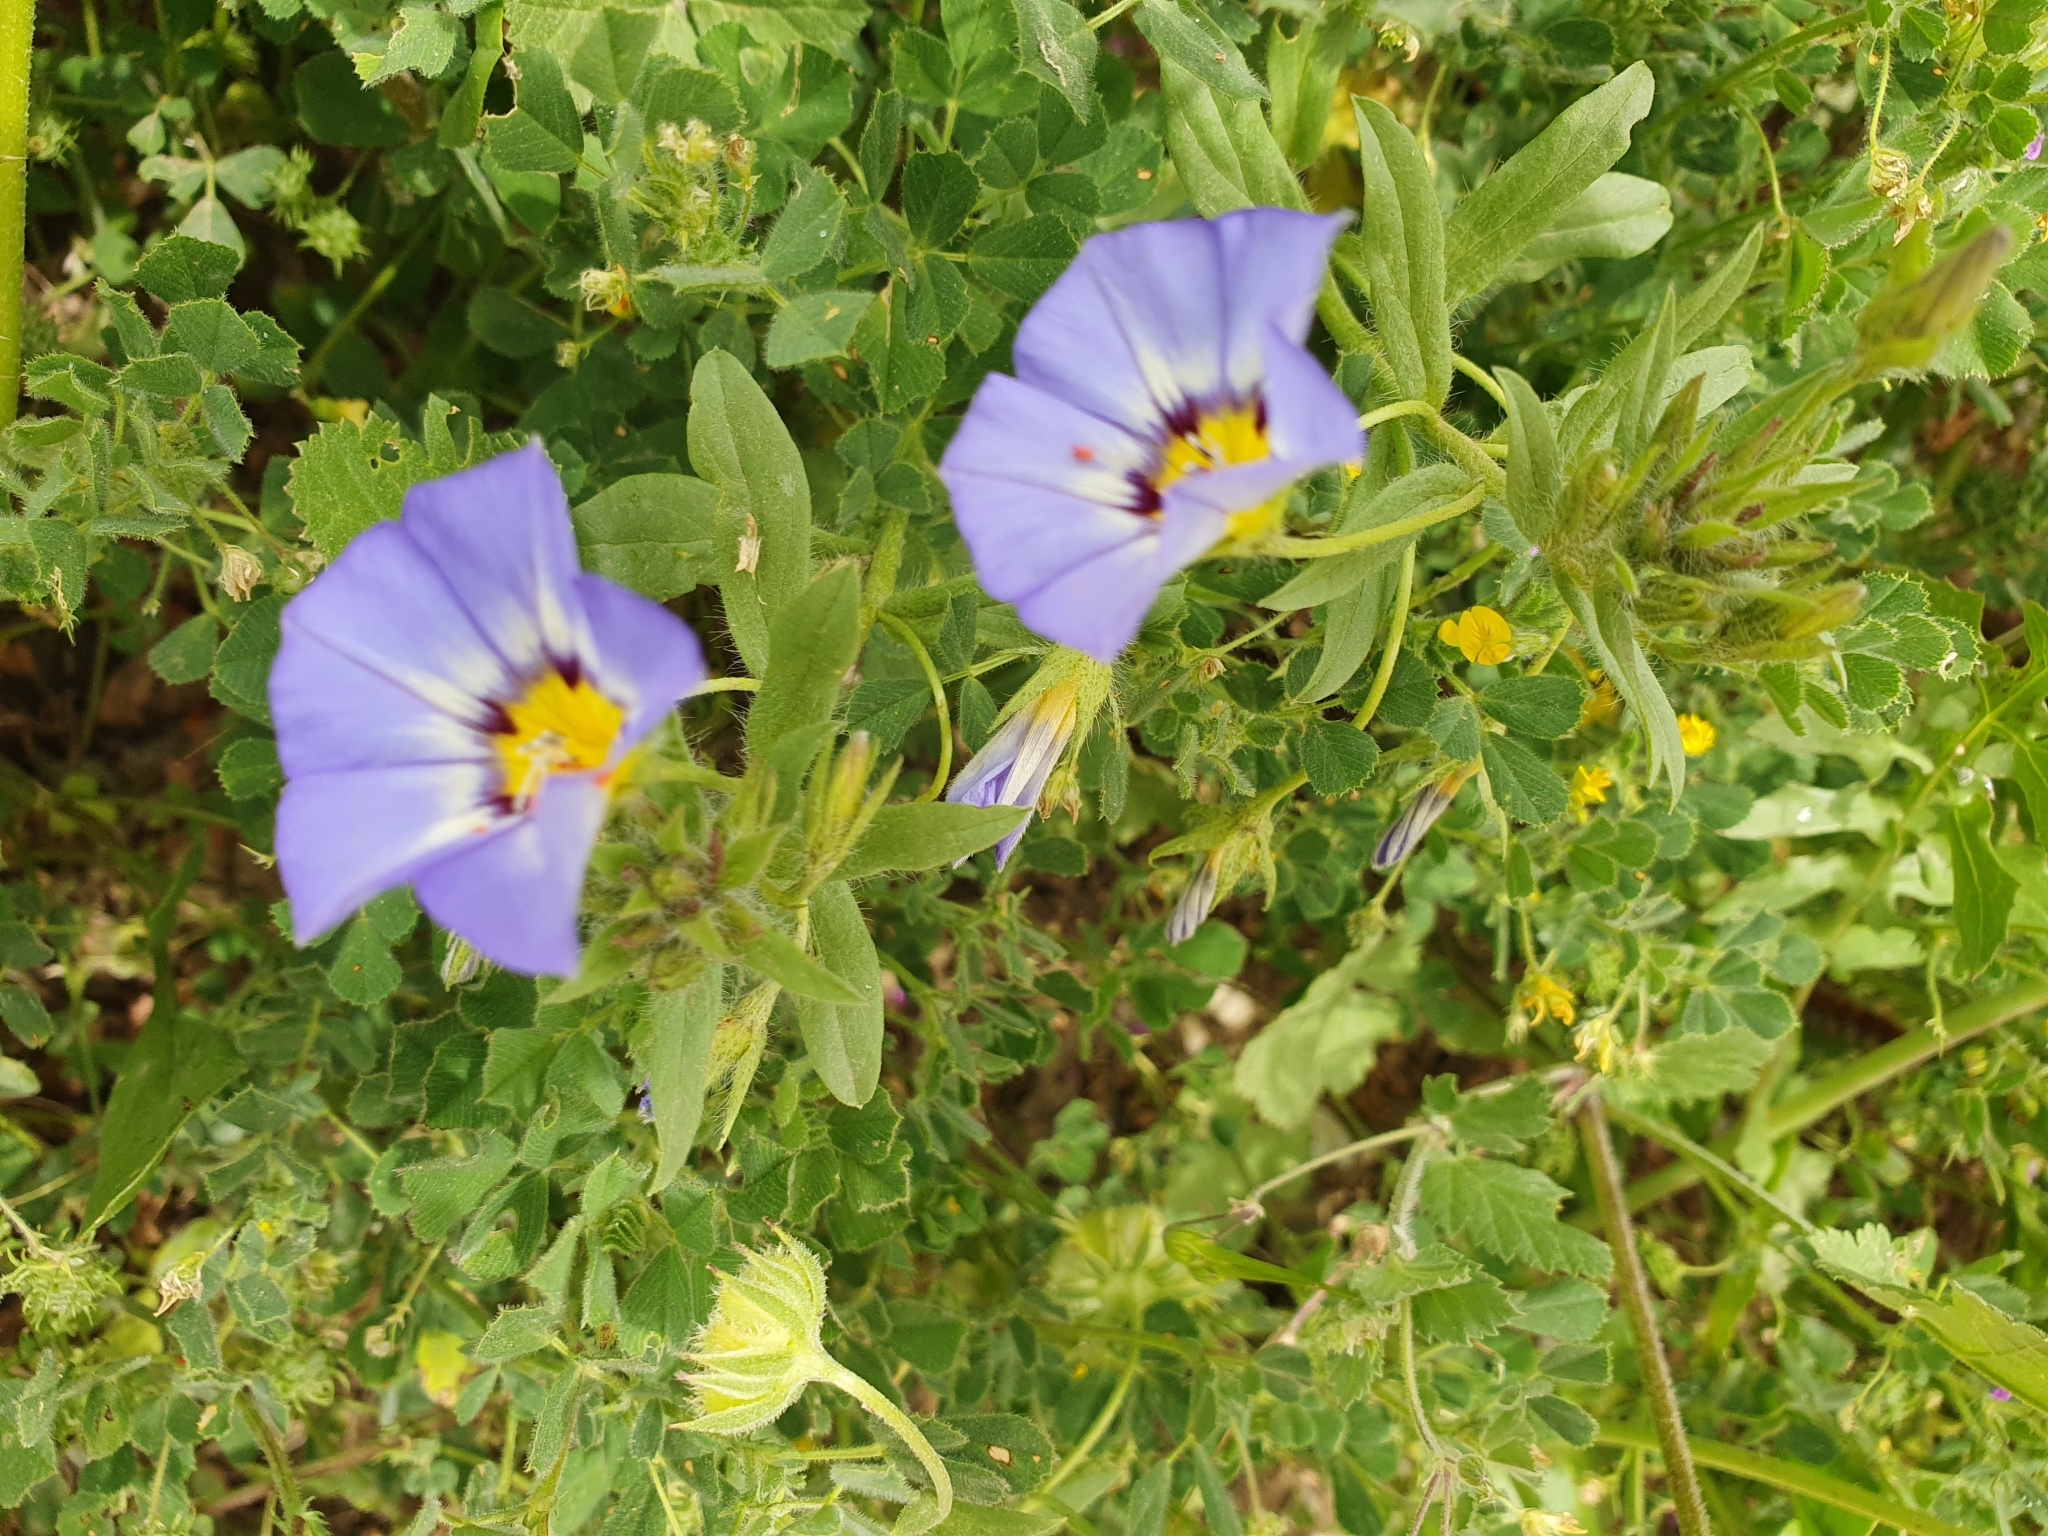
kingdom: Plantae
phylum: Tracheophyta
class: Magnoliopsida
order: Solanales
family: Convolvulaceae
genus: Convolvulus
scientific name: Convolvulus tricolor
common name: Dwarf morning-glory
